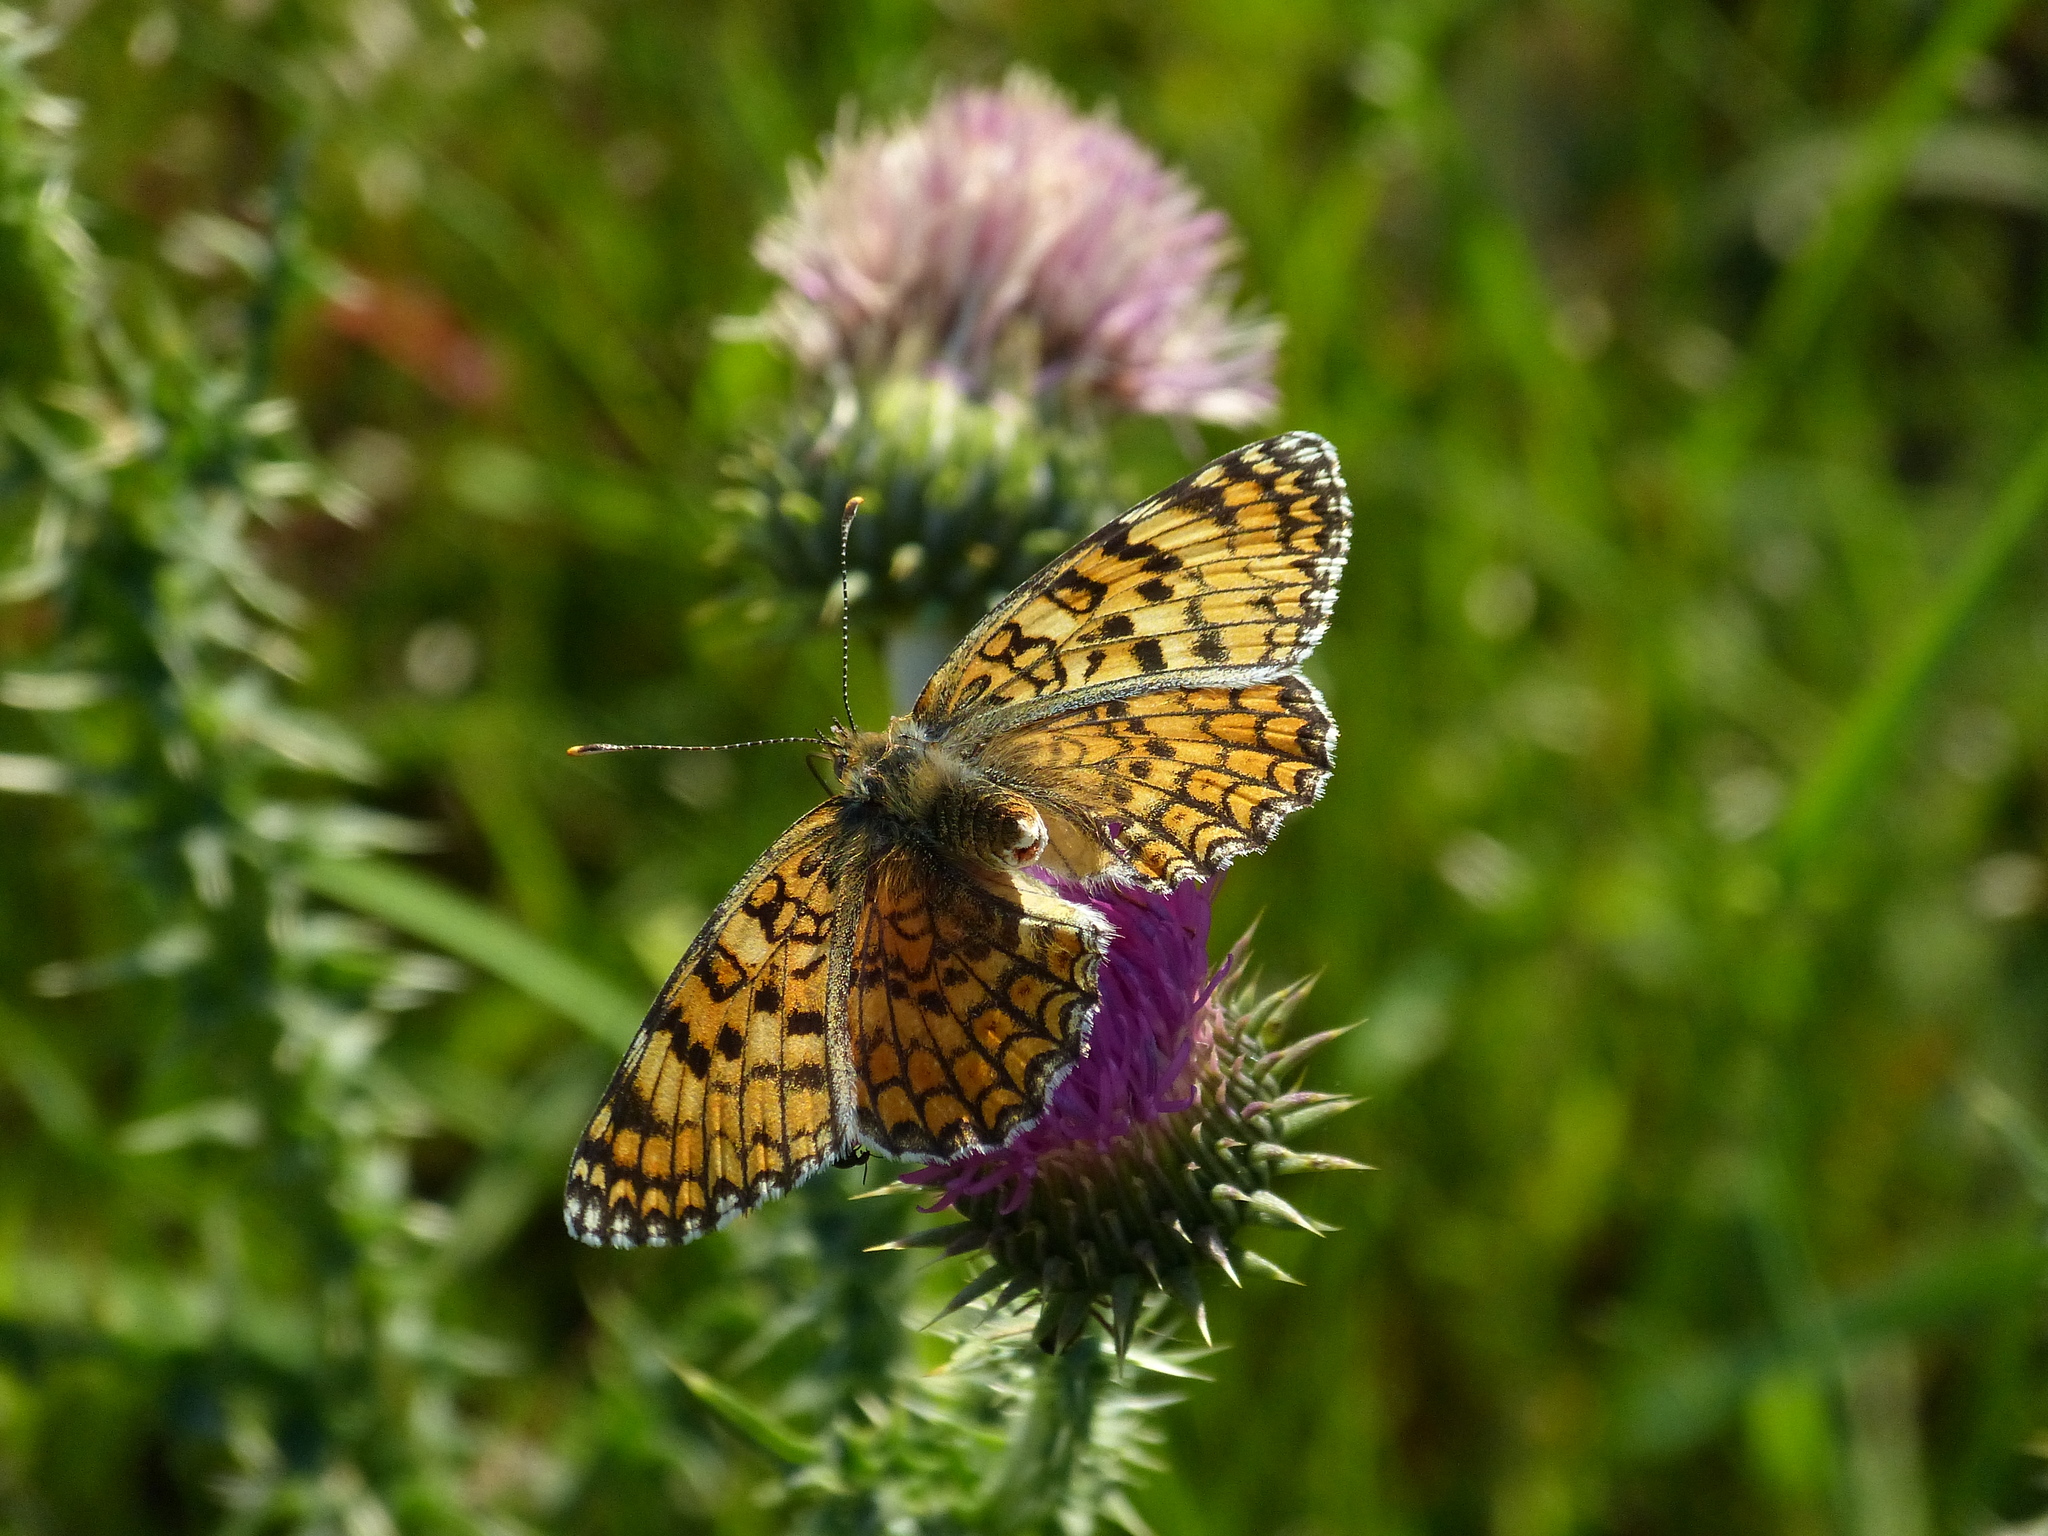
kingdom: Animalia
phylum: Arthropoda
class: Insecta
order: Lepidoptera
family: Nymphalidae
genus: Melitaea
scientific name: Melitaea phoebe
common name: Knapweed fritillary
